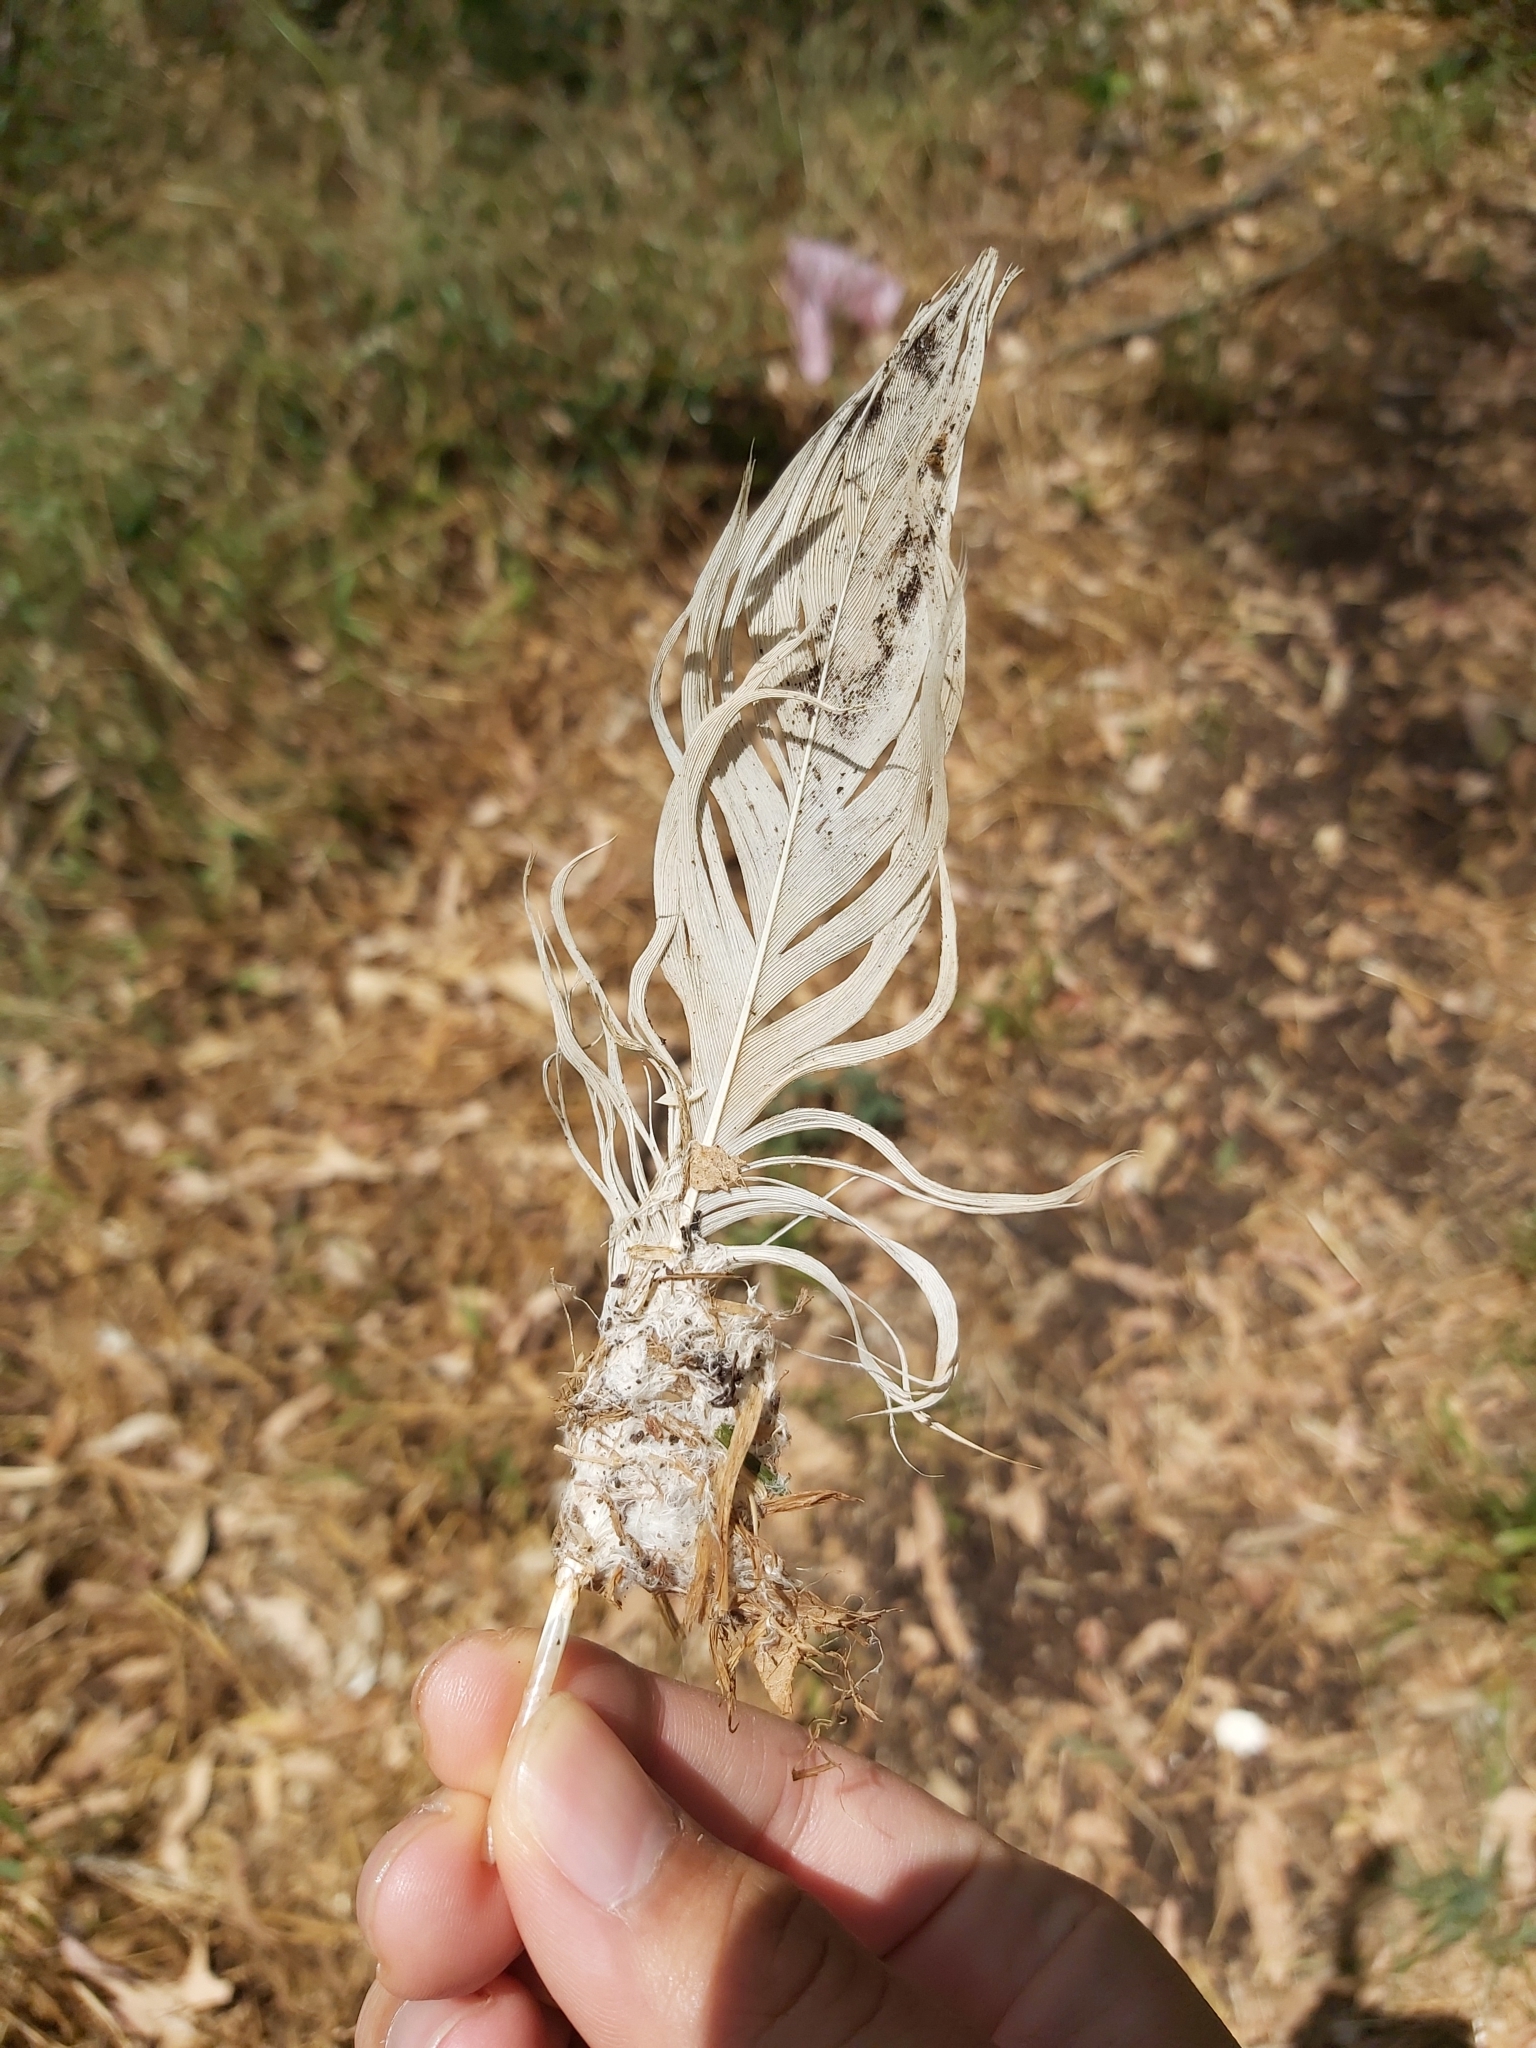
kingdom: Animalia
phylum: Chordata
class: Aves
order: Psittaciformes
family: Psittacidae
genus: Cacatua
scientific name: Cacatua galerita
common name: Sulphur-crested cockatoo
